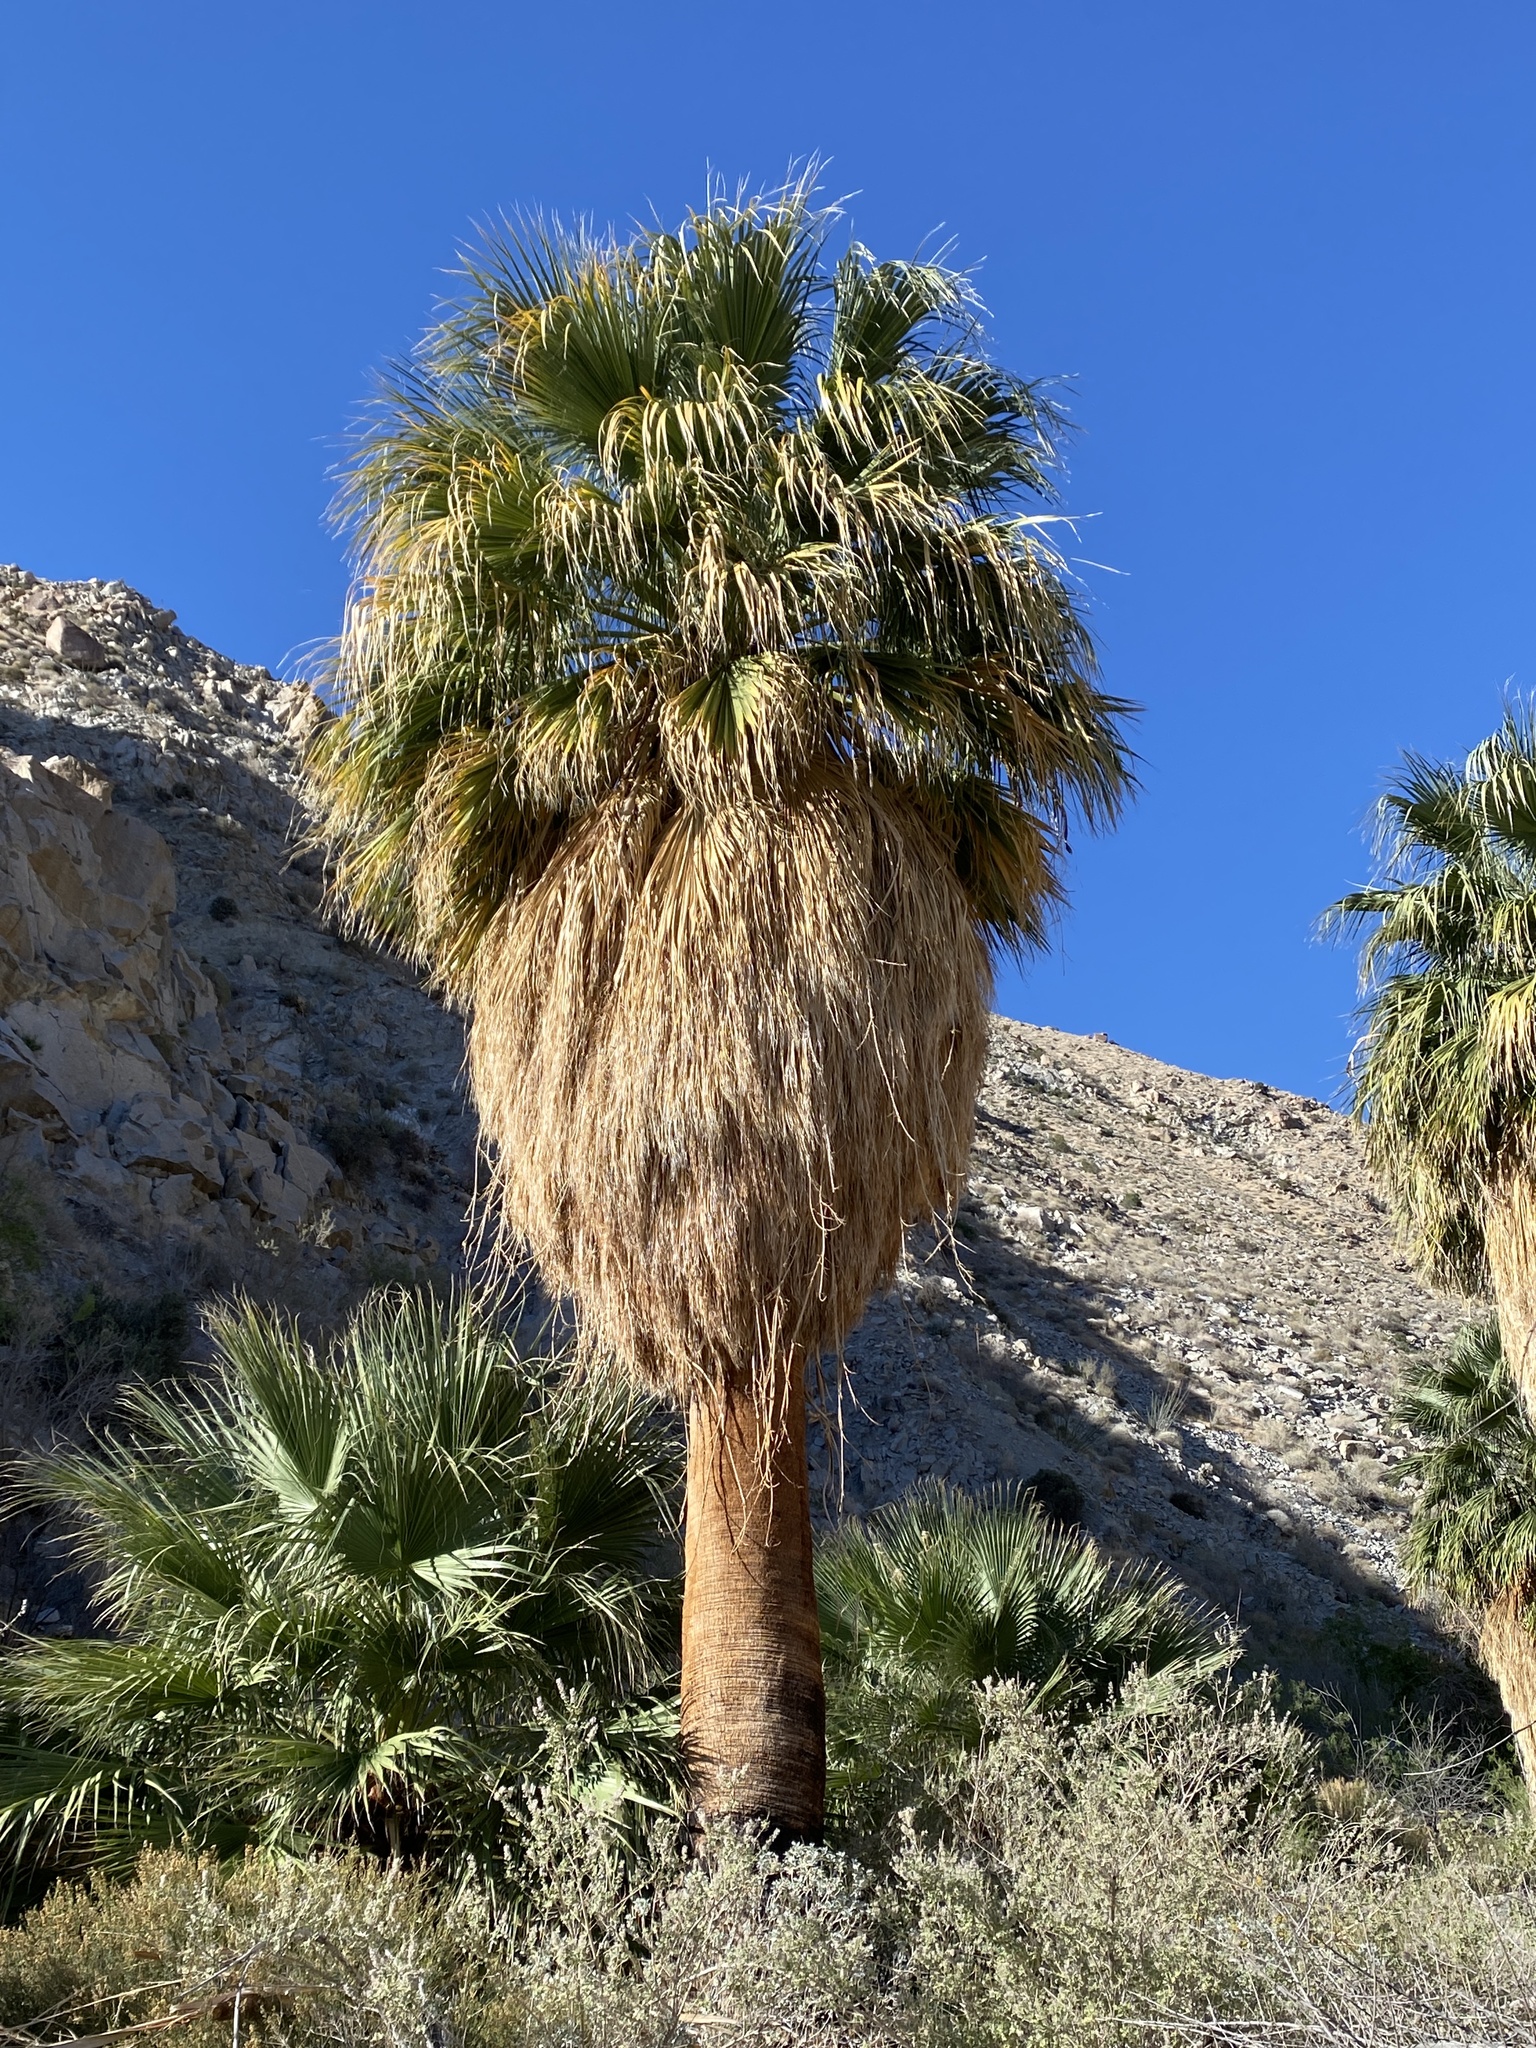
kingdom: Plantae
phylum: Tracheophyta
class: Liliopsida
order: Arecales
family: Arecaceae
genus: Washingtonia
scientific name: Washingtonia filifera
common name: California fan palm
